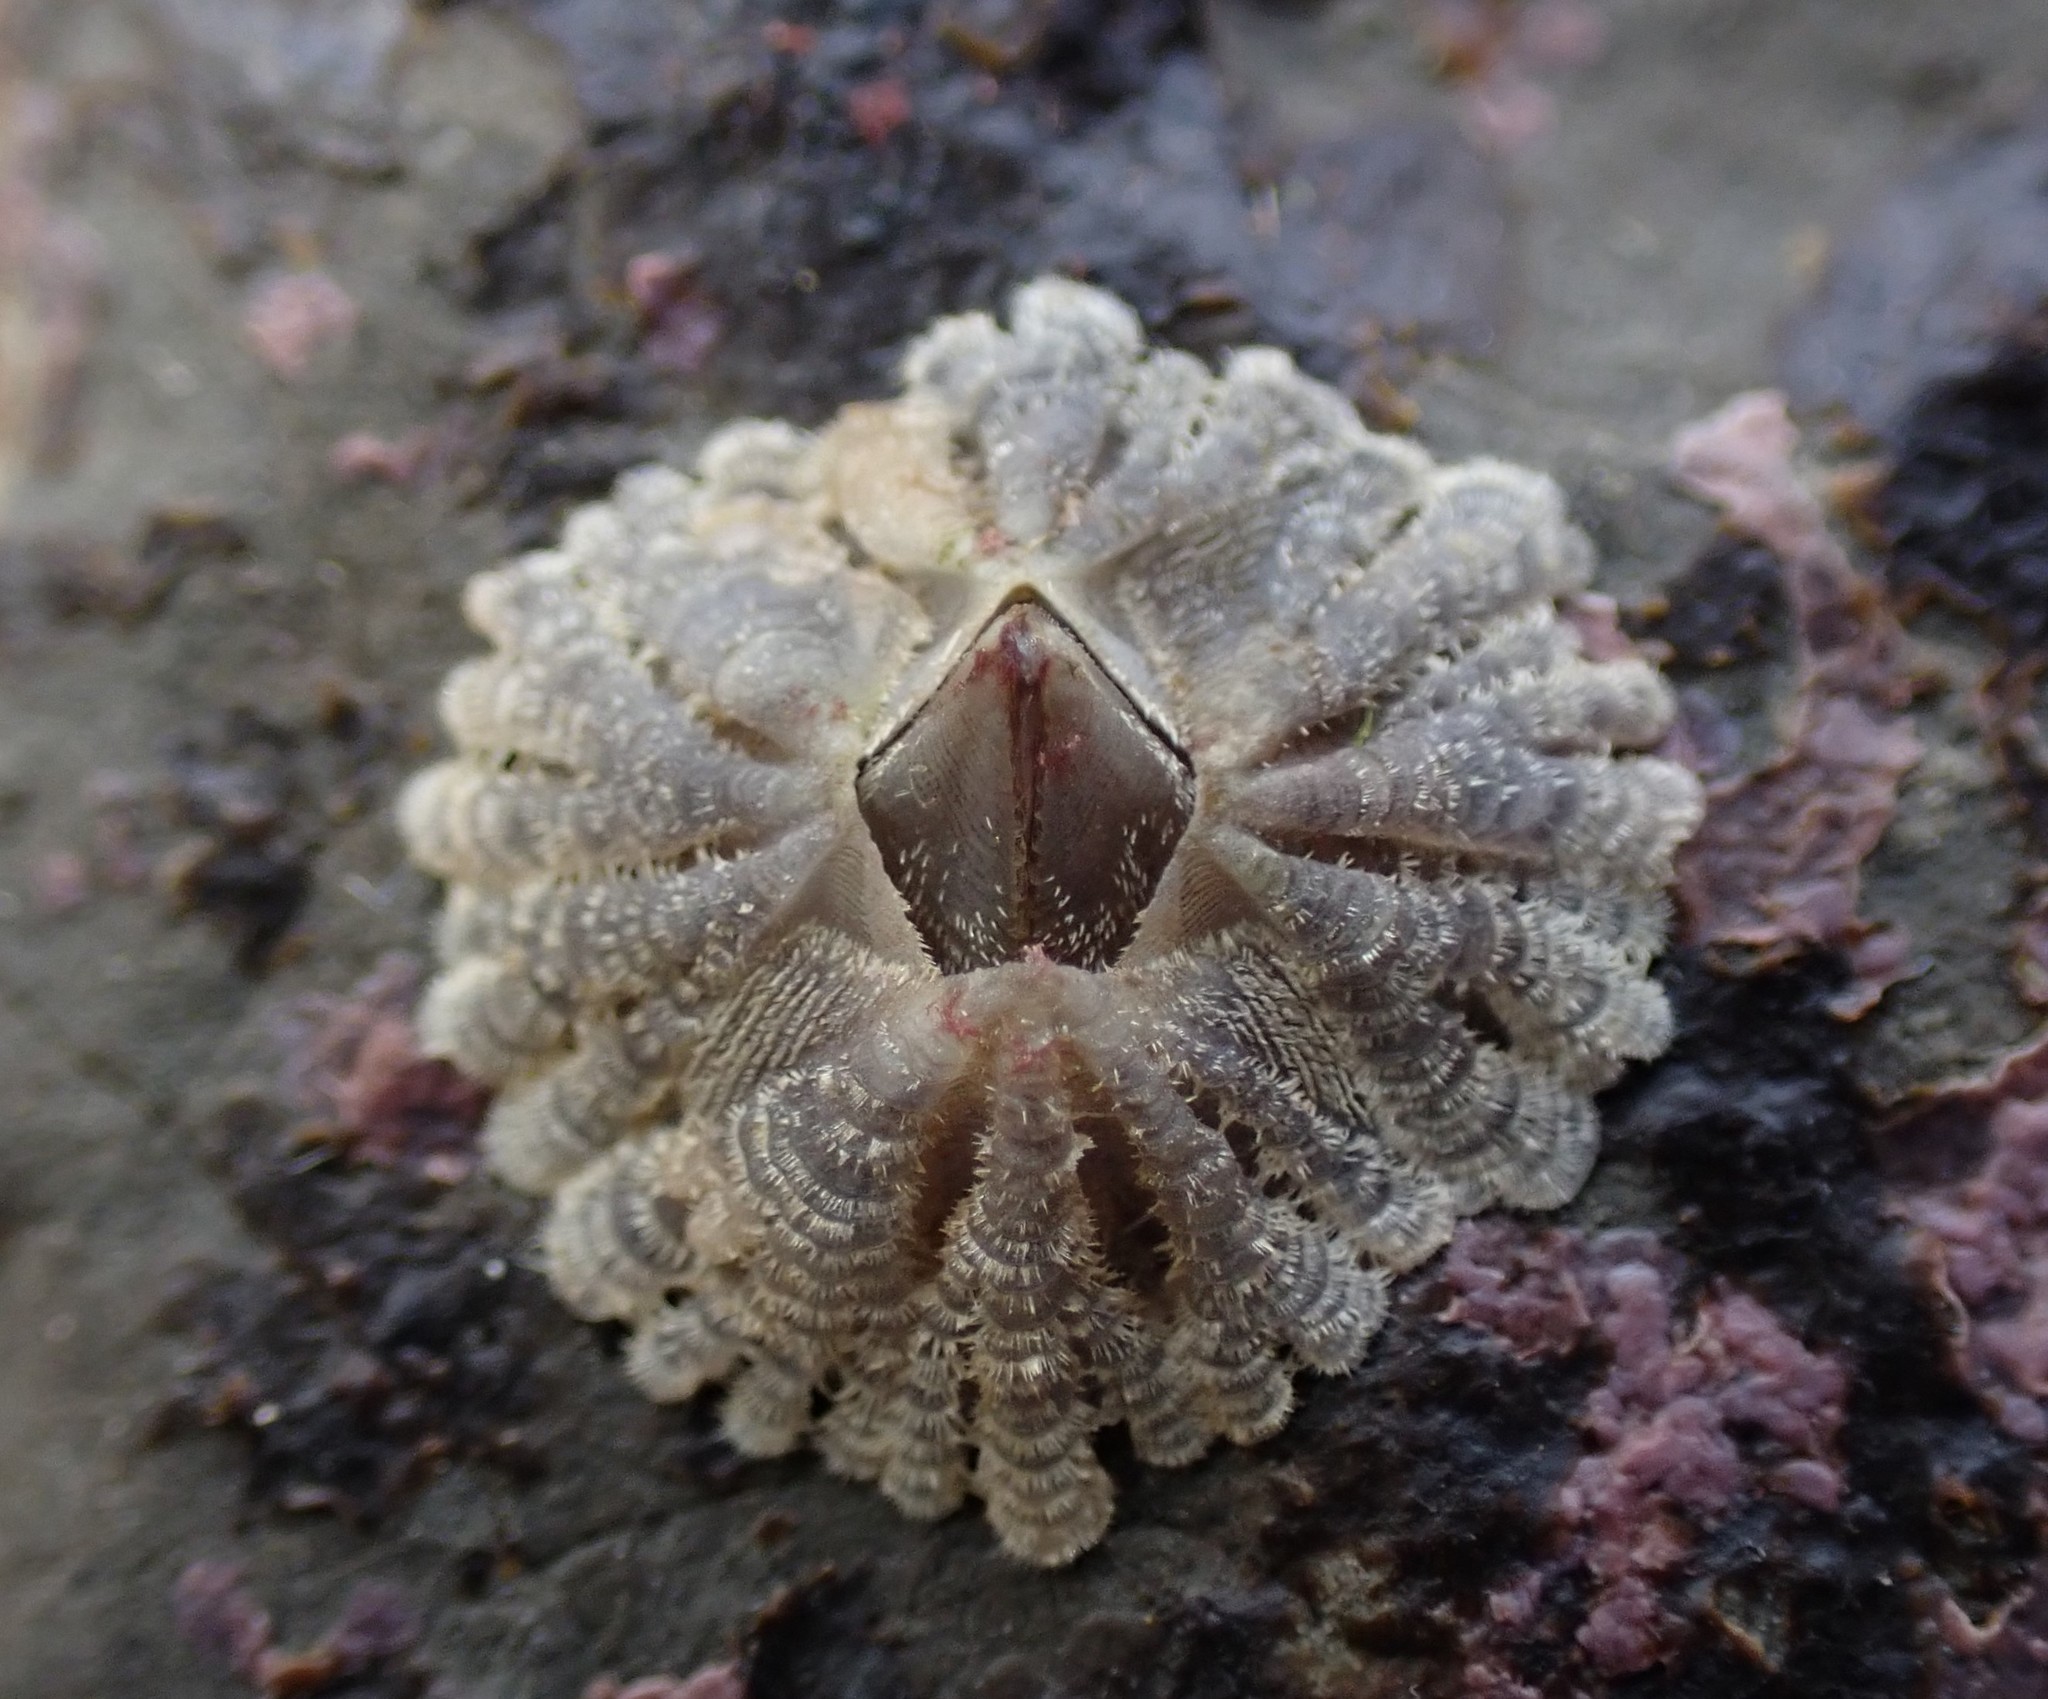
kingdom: Animalia
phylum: Arthropoda
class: Maxillopoda
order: Sessilia
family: Tetraclitidae
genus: Tetraclitella
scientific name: Tetraclitella depressa
